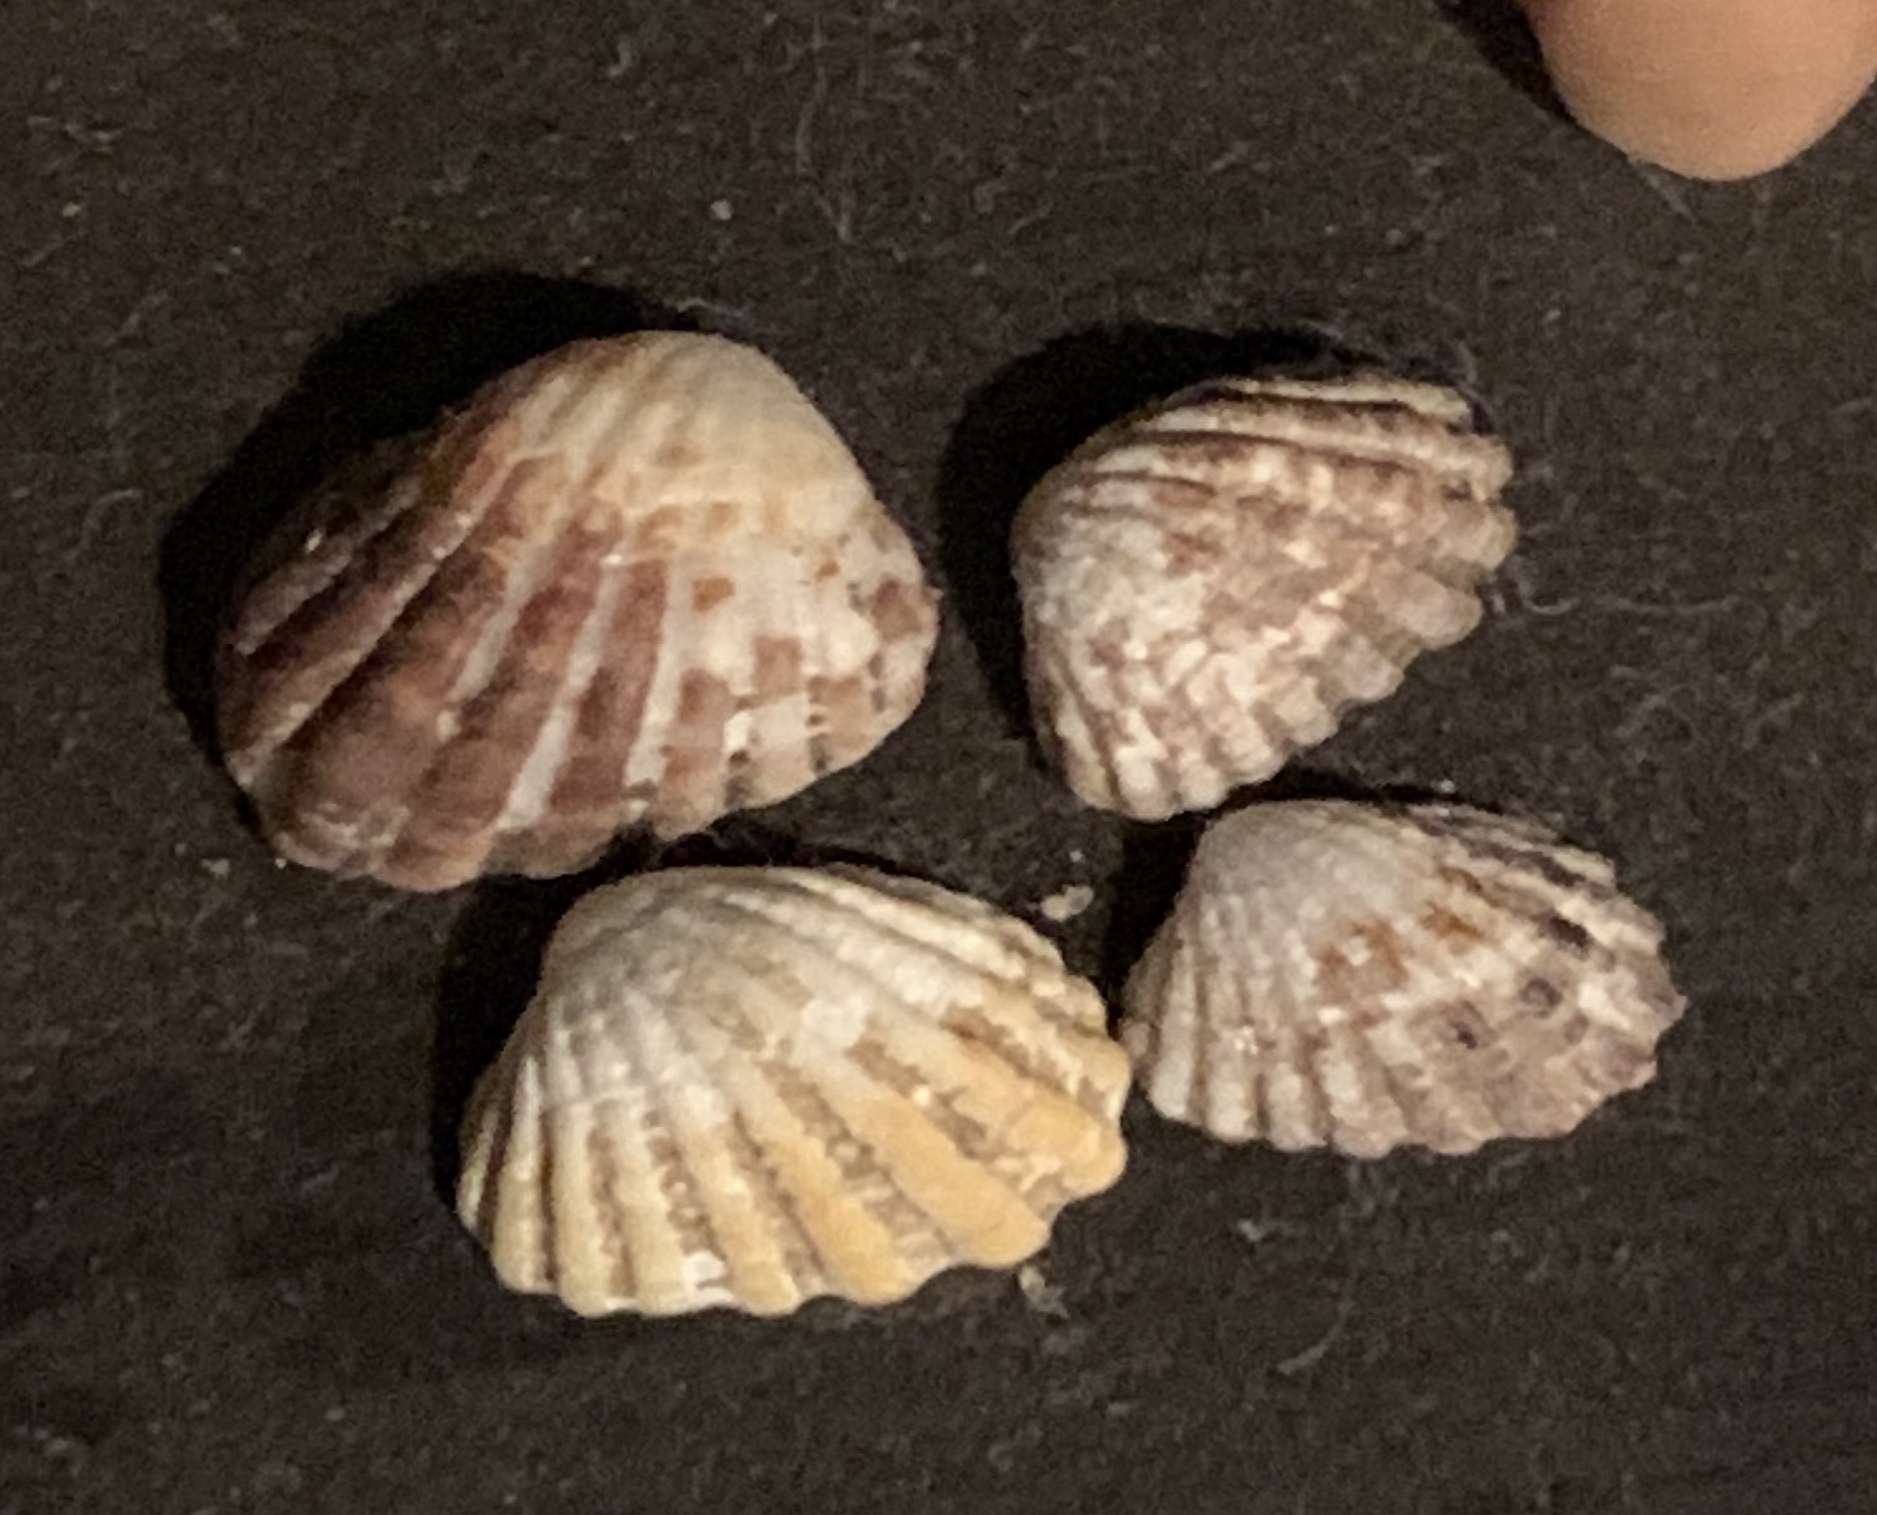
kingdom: Animalia
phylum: Mollusca
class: Bivalvia
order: Carditida
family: Carditidae
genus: Glans
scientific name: Glans carpenteri
